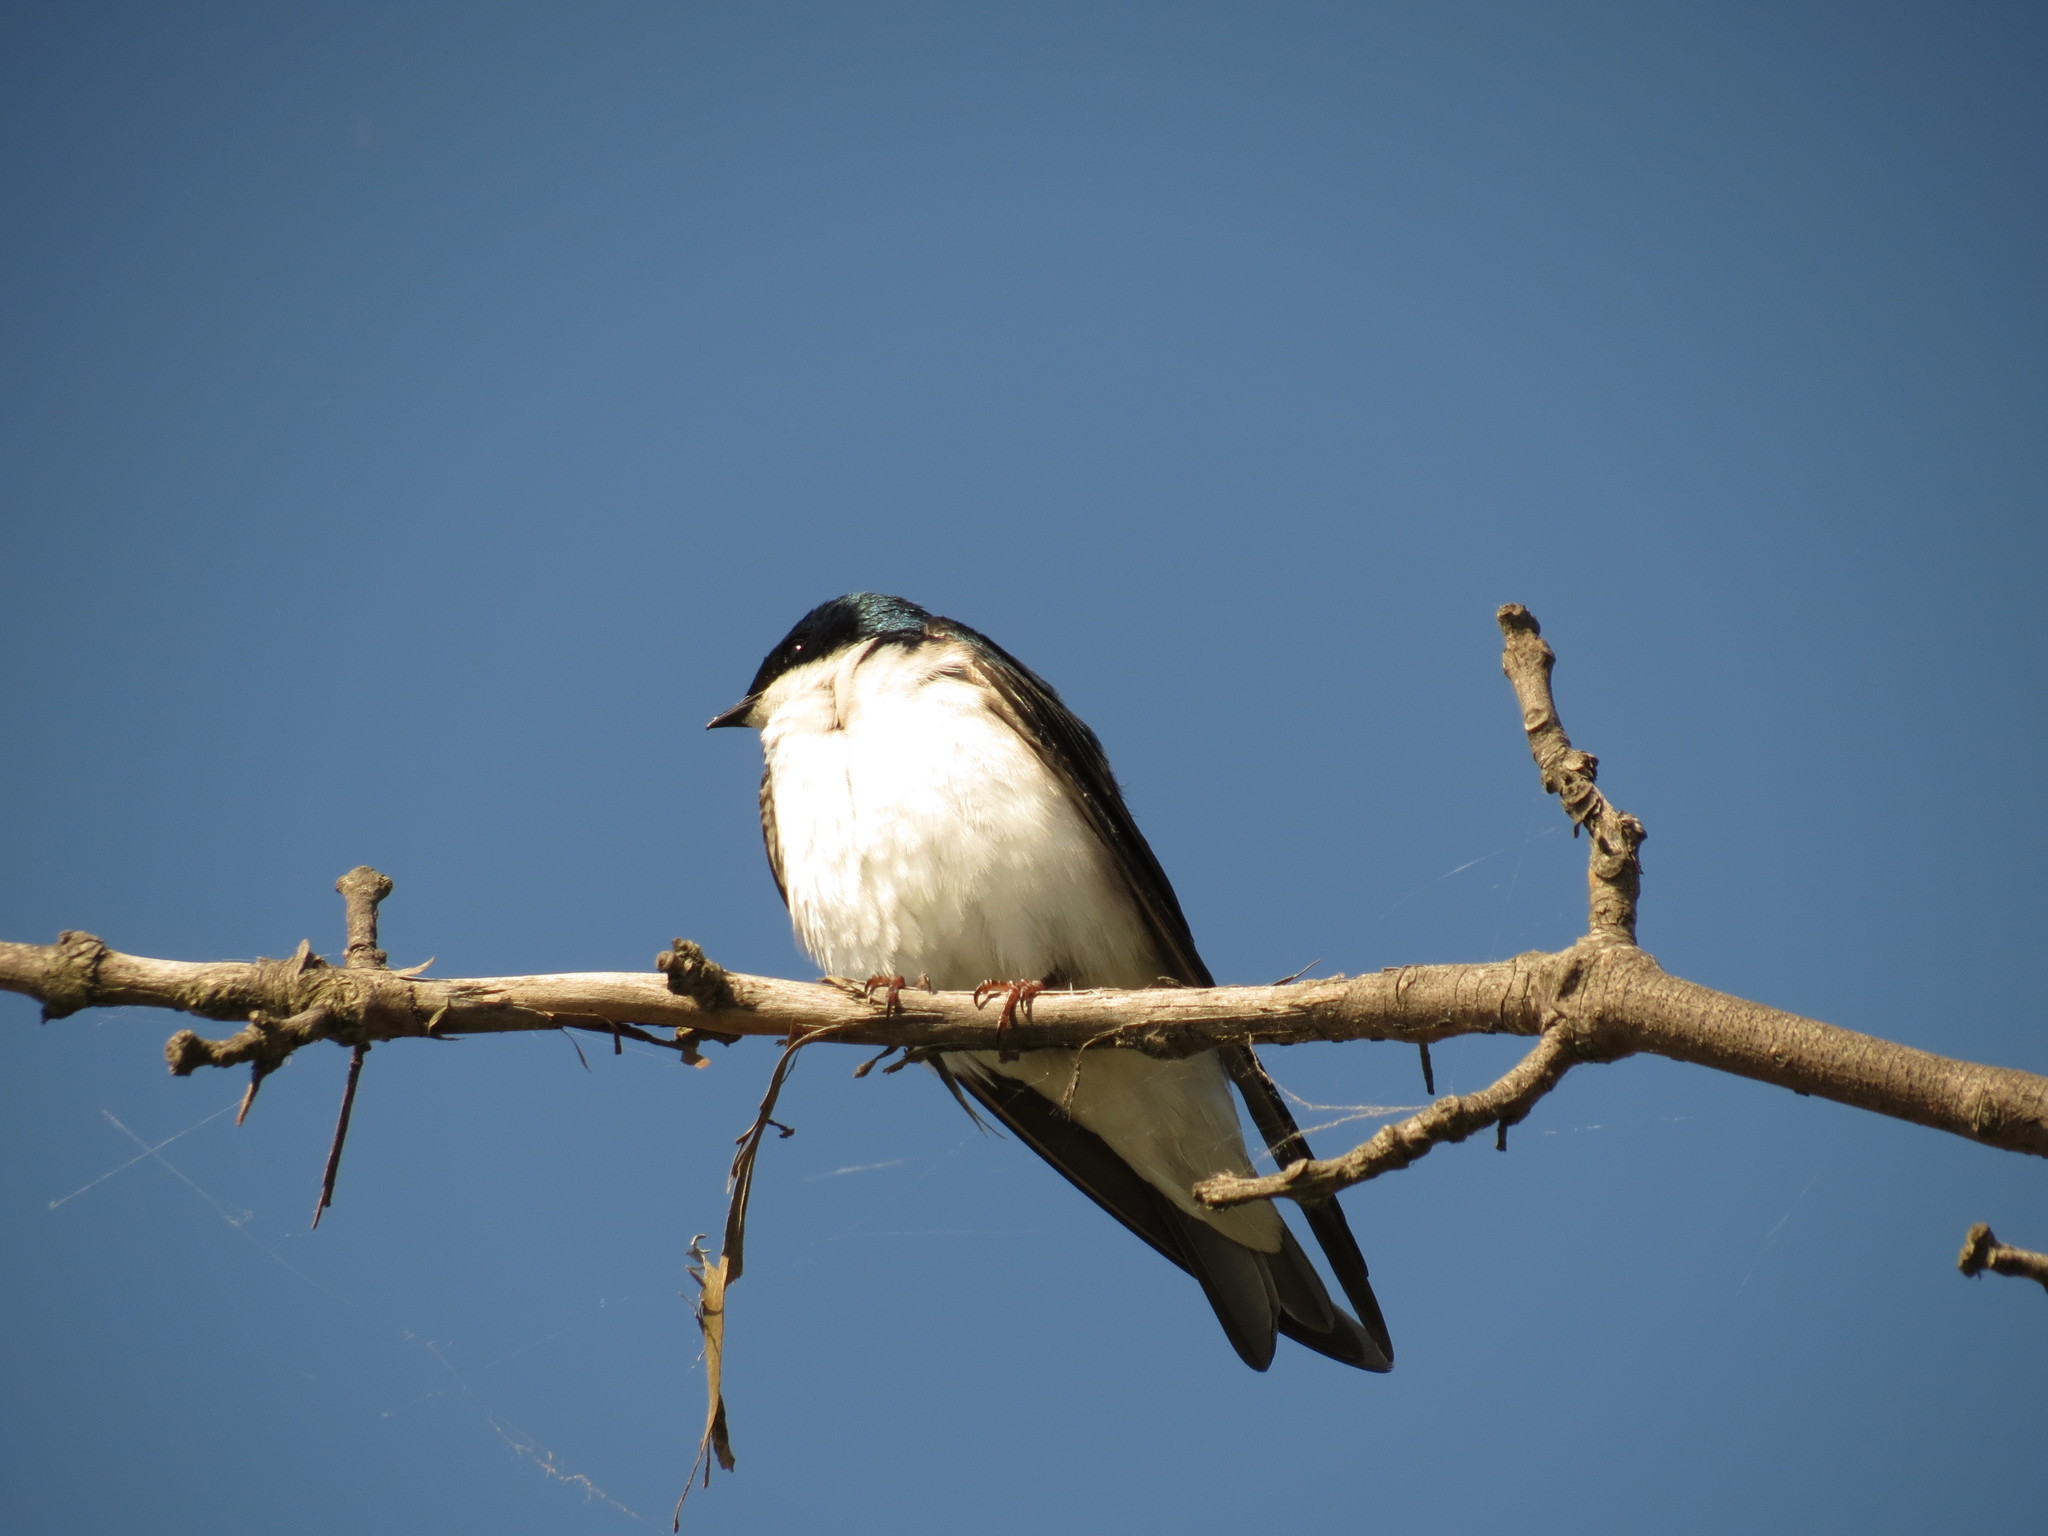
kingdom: Animalia
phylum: Chordata
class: Aves
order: Passeriformes
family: Hirundinidae
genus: Tachycineta
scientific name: Tachycineta bicolor
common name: Tree swallow
